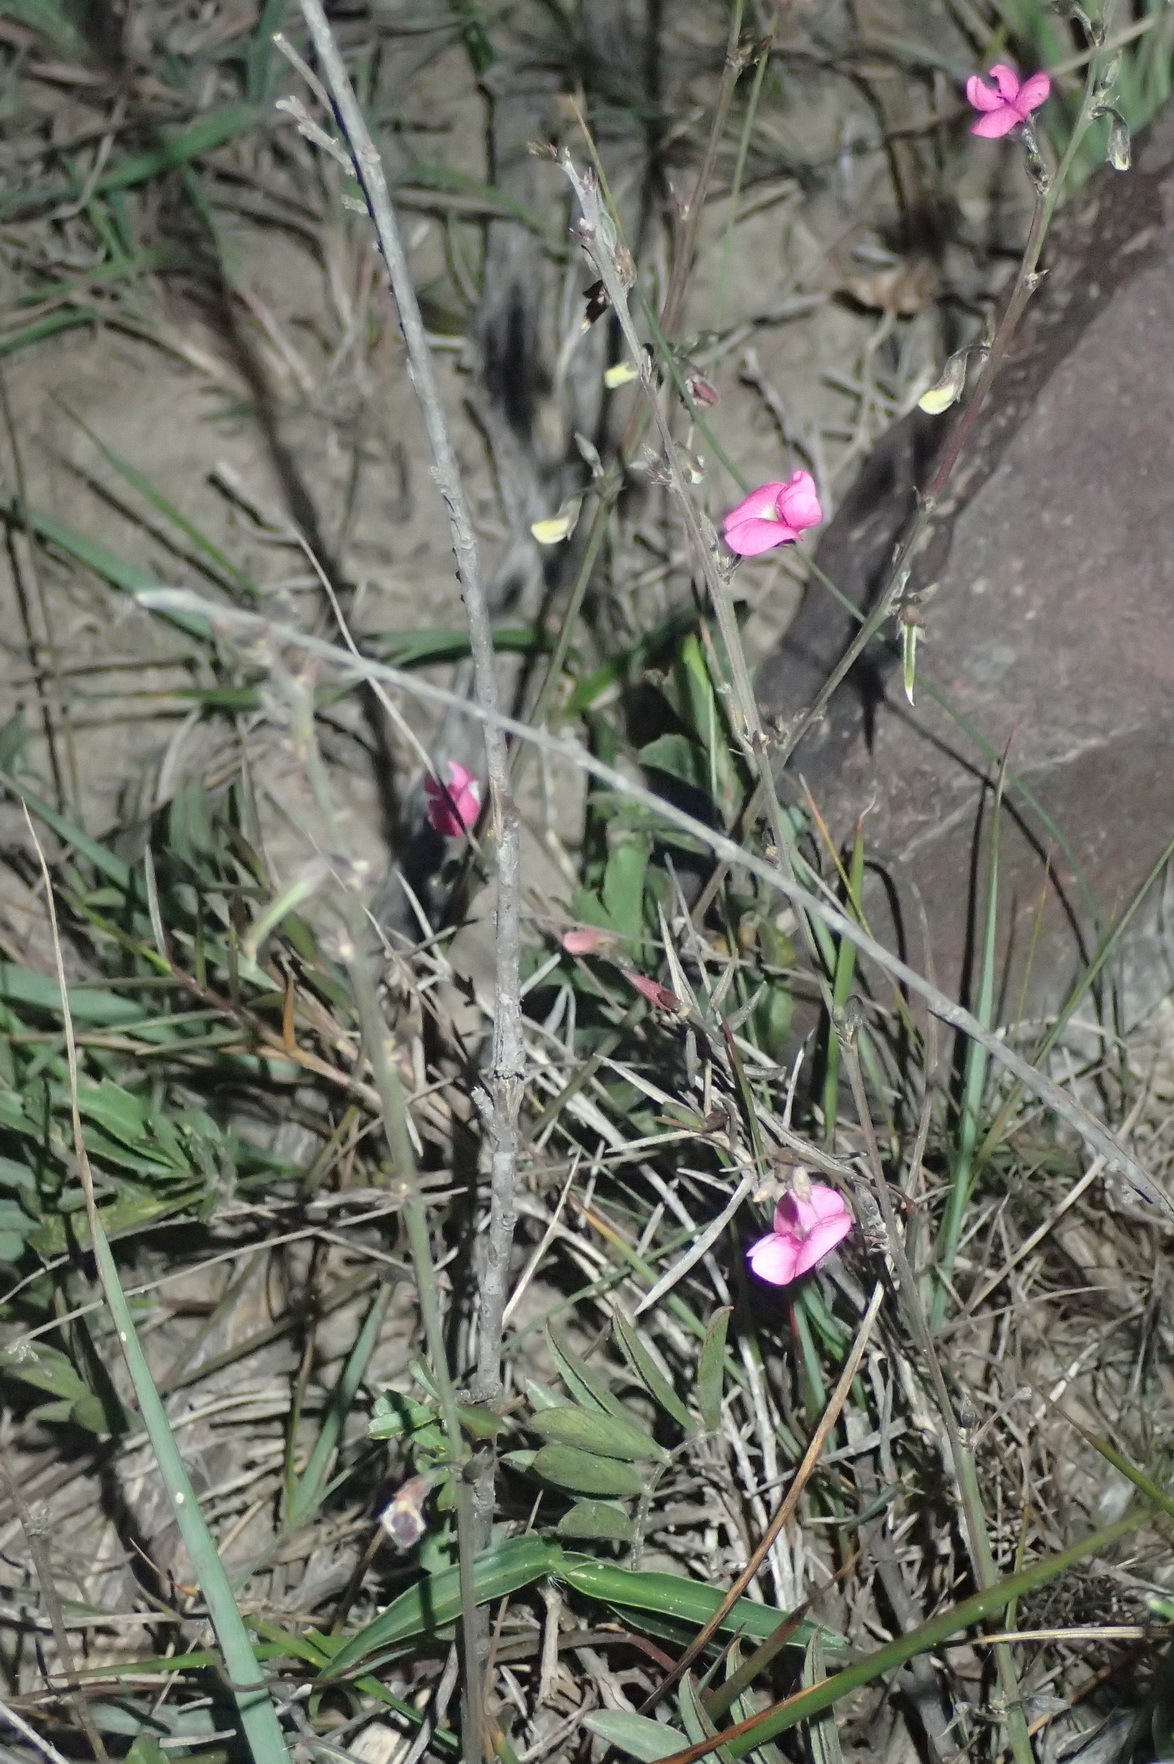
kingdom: Plantae
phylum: Tracheophyta
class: Magnoliopsida
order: Fabales
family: Fabaceae
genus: Tephrosia
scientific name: Tephrosia capensis
